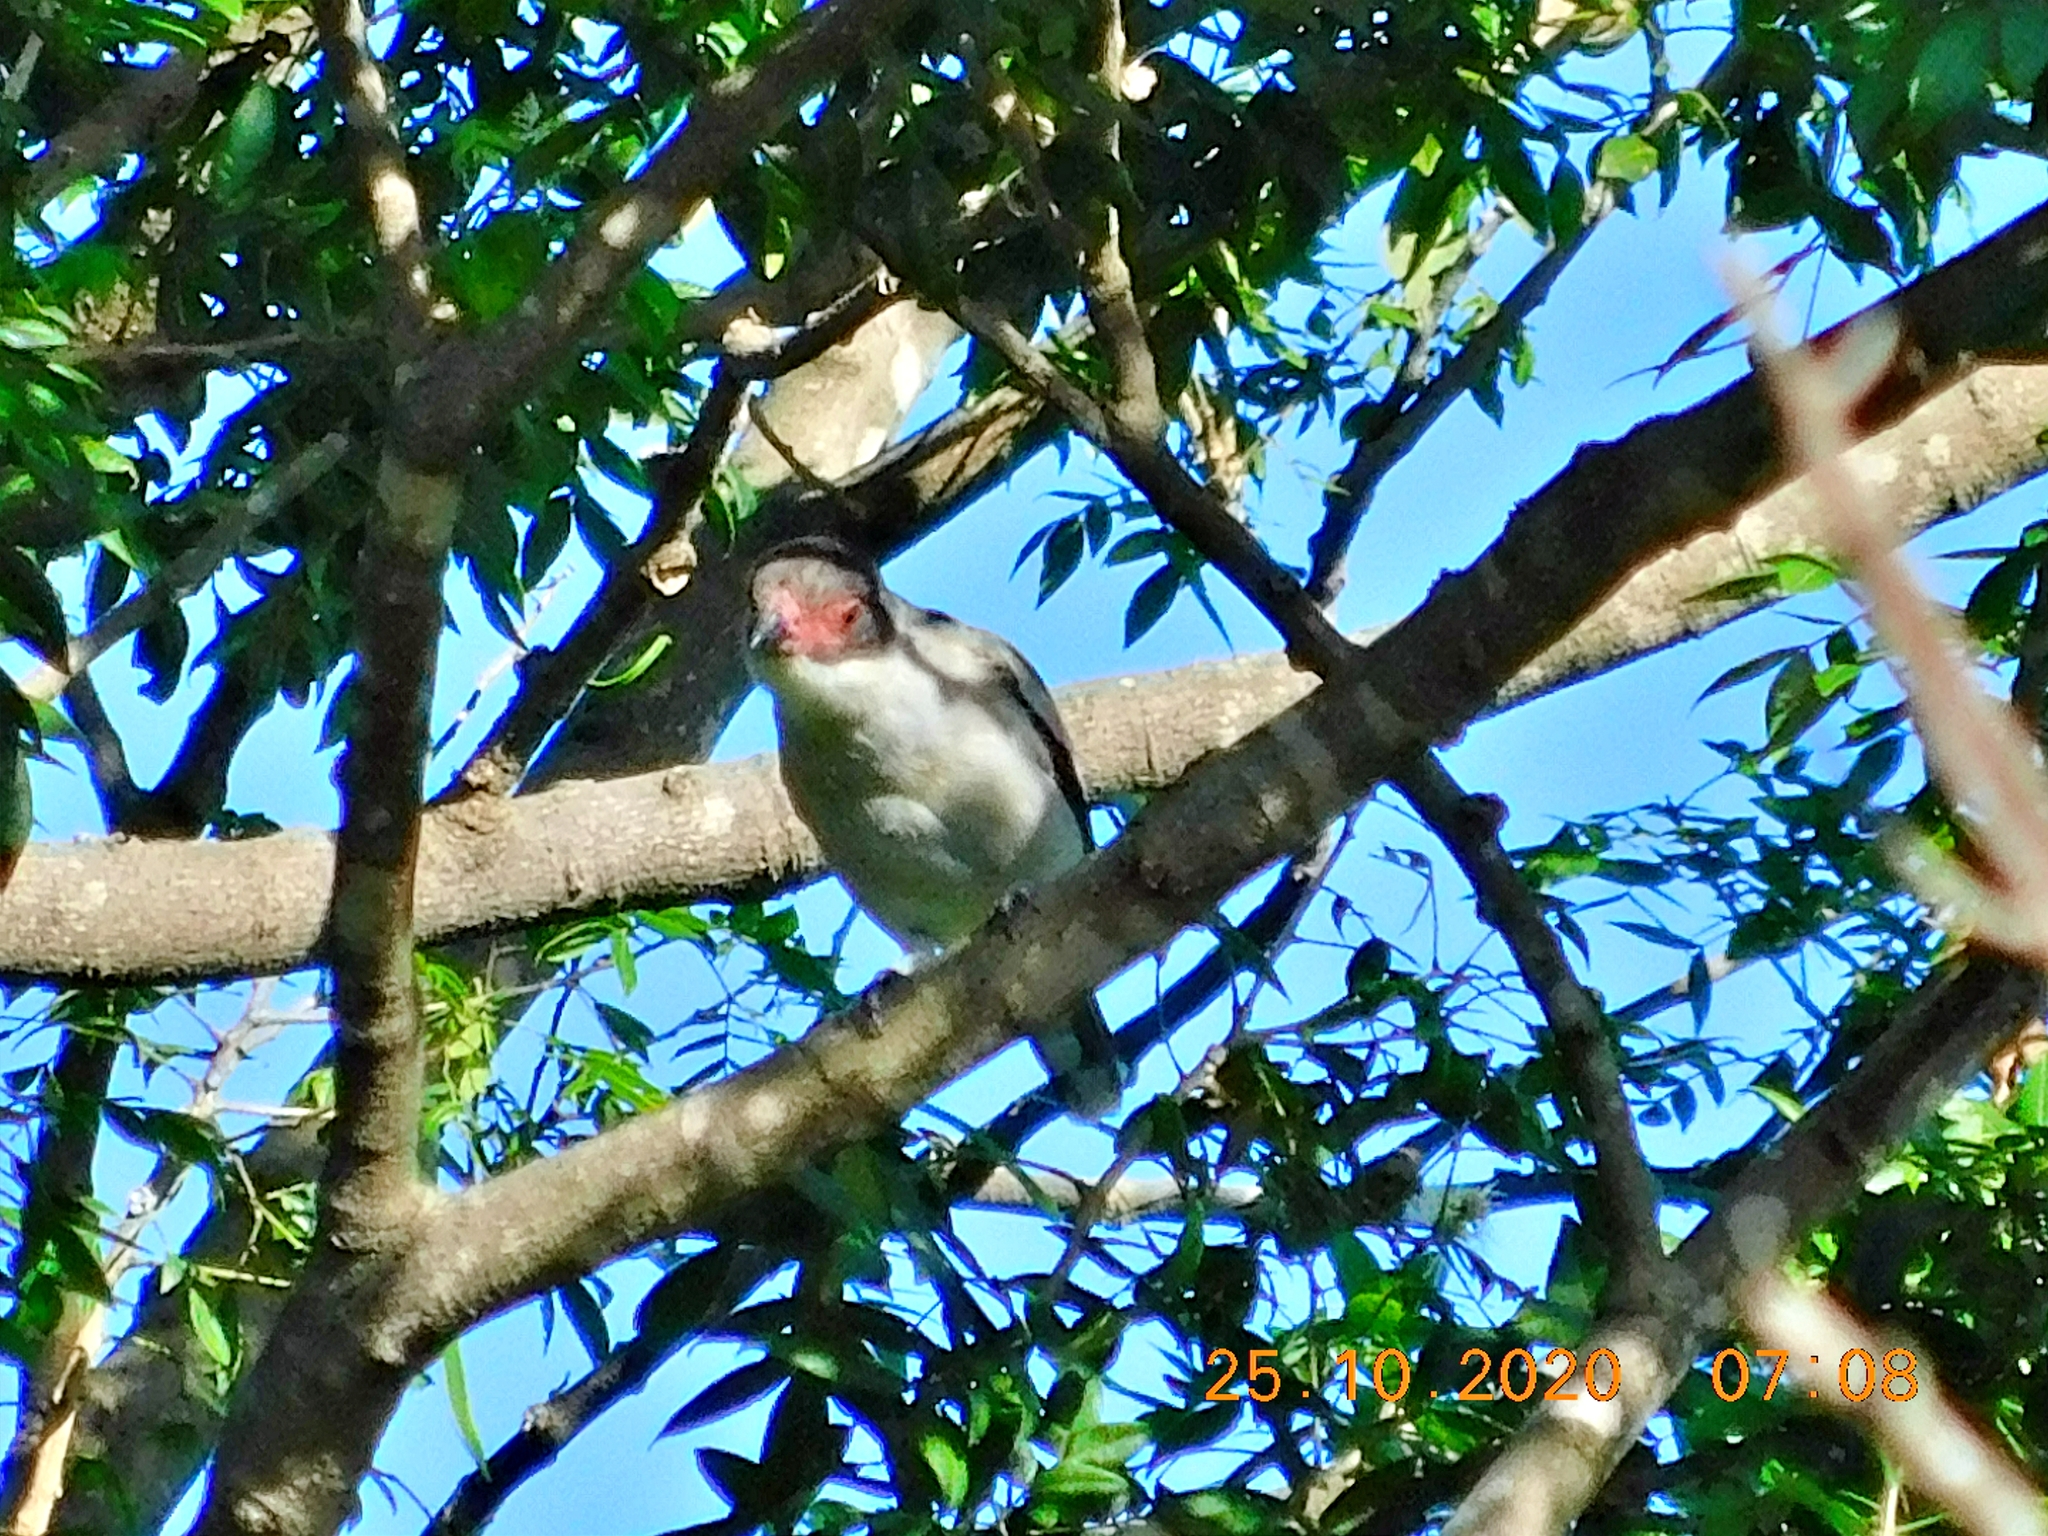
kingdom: Animalia
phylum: Chordata
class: Aves
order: Passeriformes
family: Cotingidae
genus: Tityra
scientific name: Tityra inquisitor
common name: Black-crowned tityra
